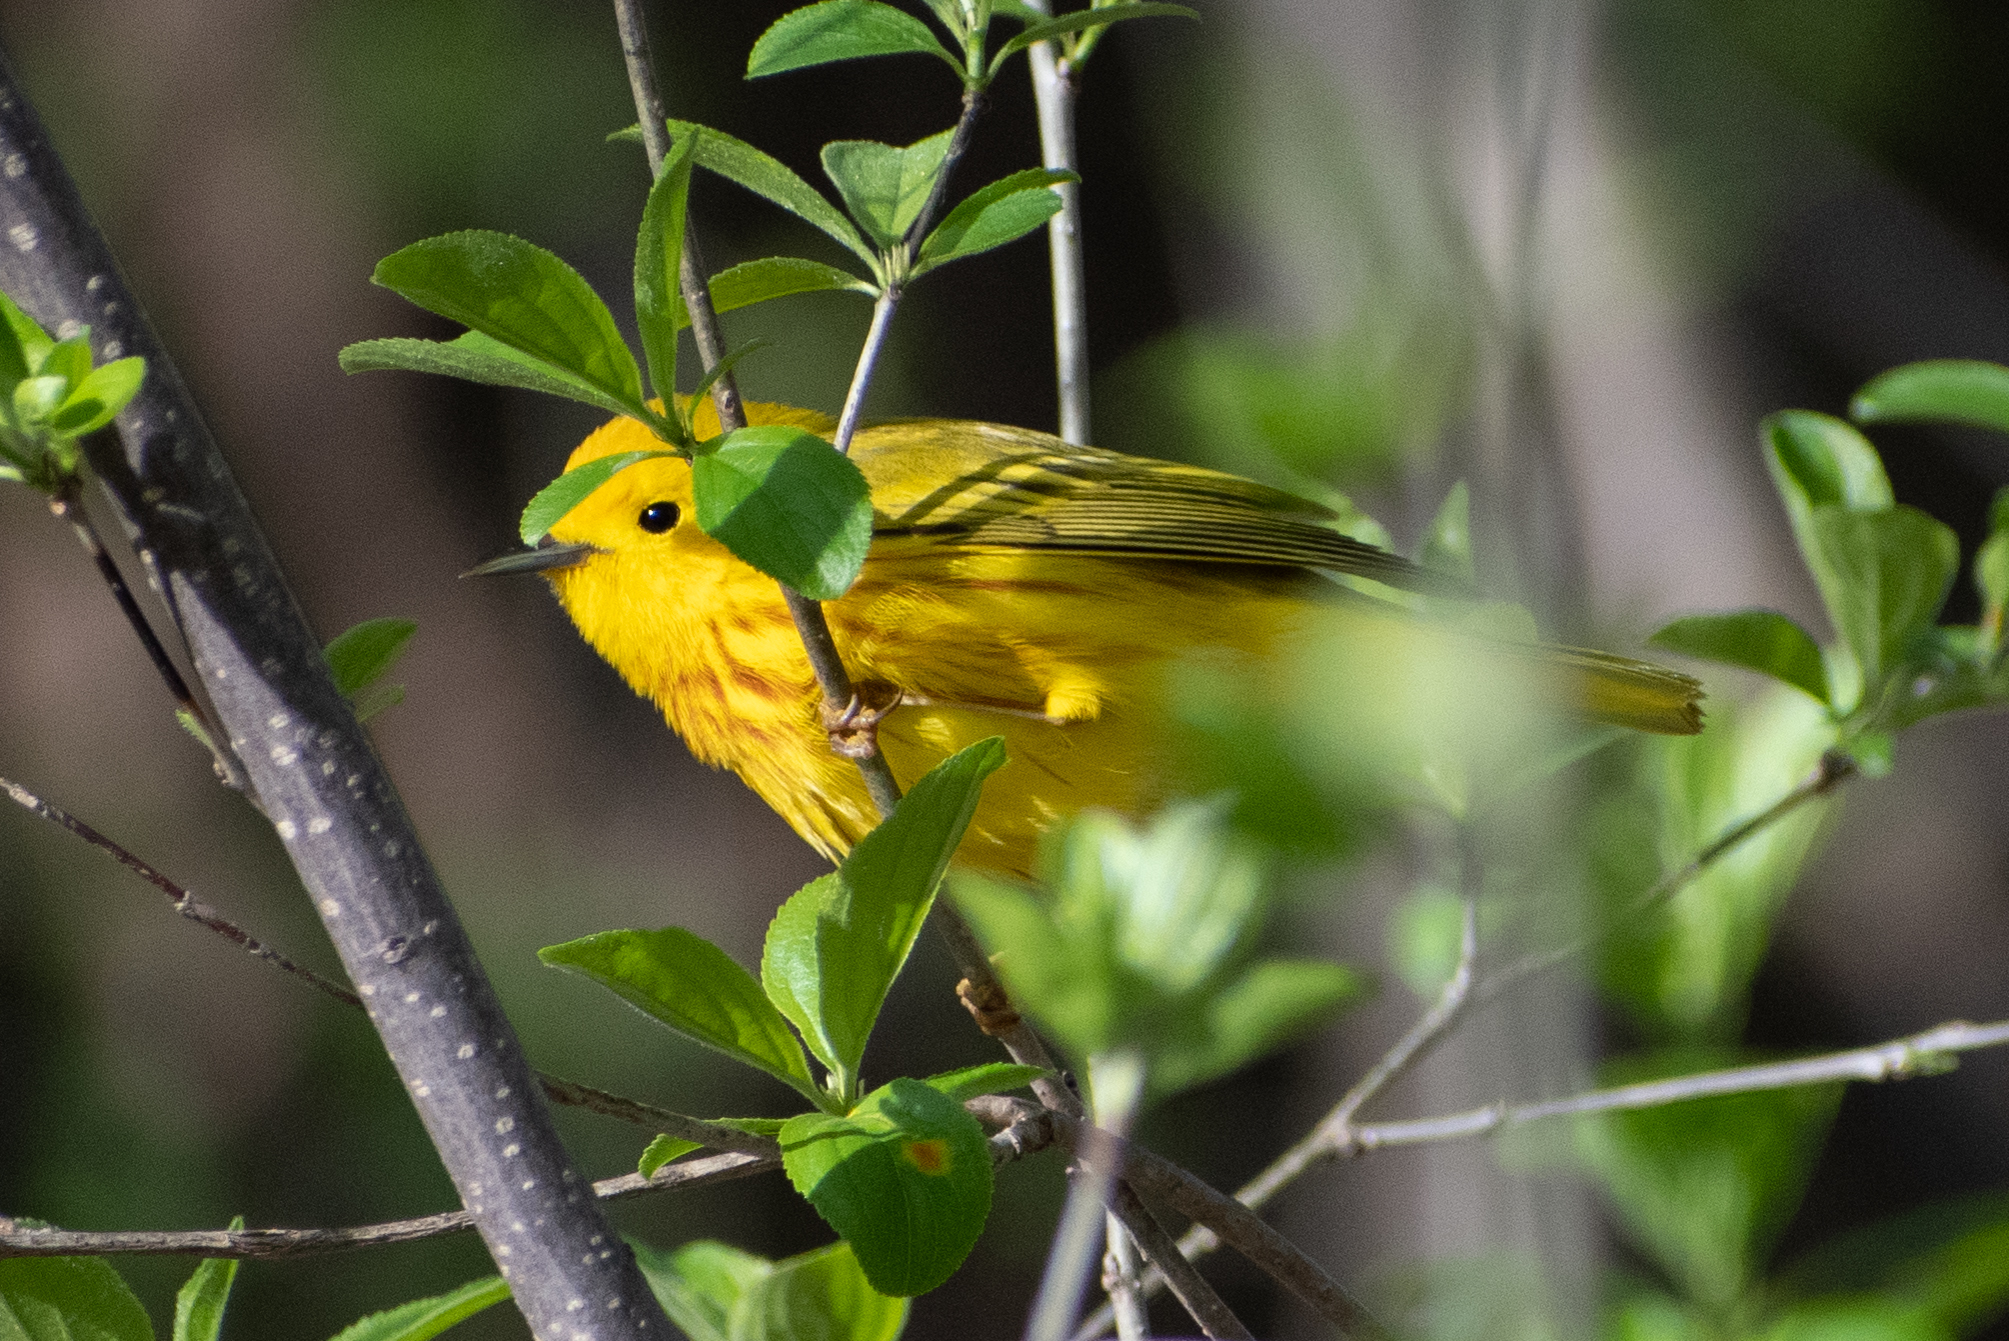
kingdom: Animalia
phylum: Chordata
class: Aves
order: Passeriformes
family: Parulidae
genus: Setophaga
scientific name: Setophaga petechia
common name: Yellow warbler
